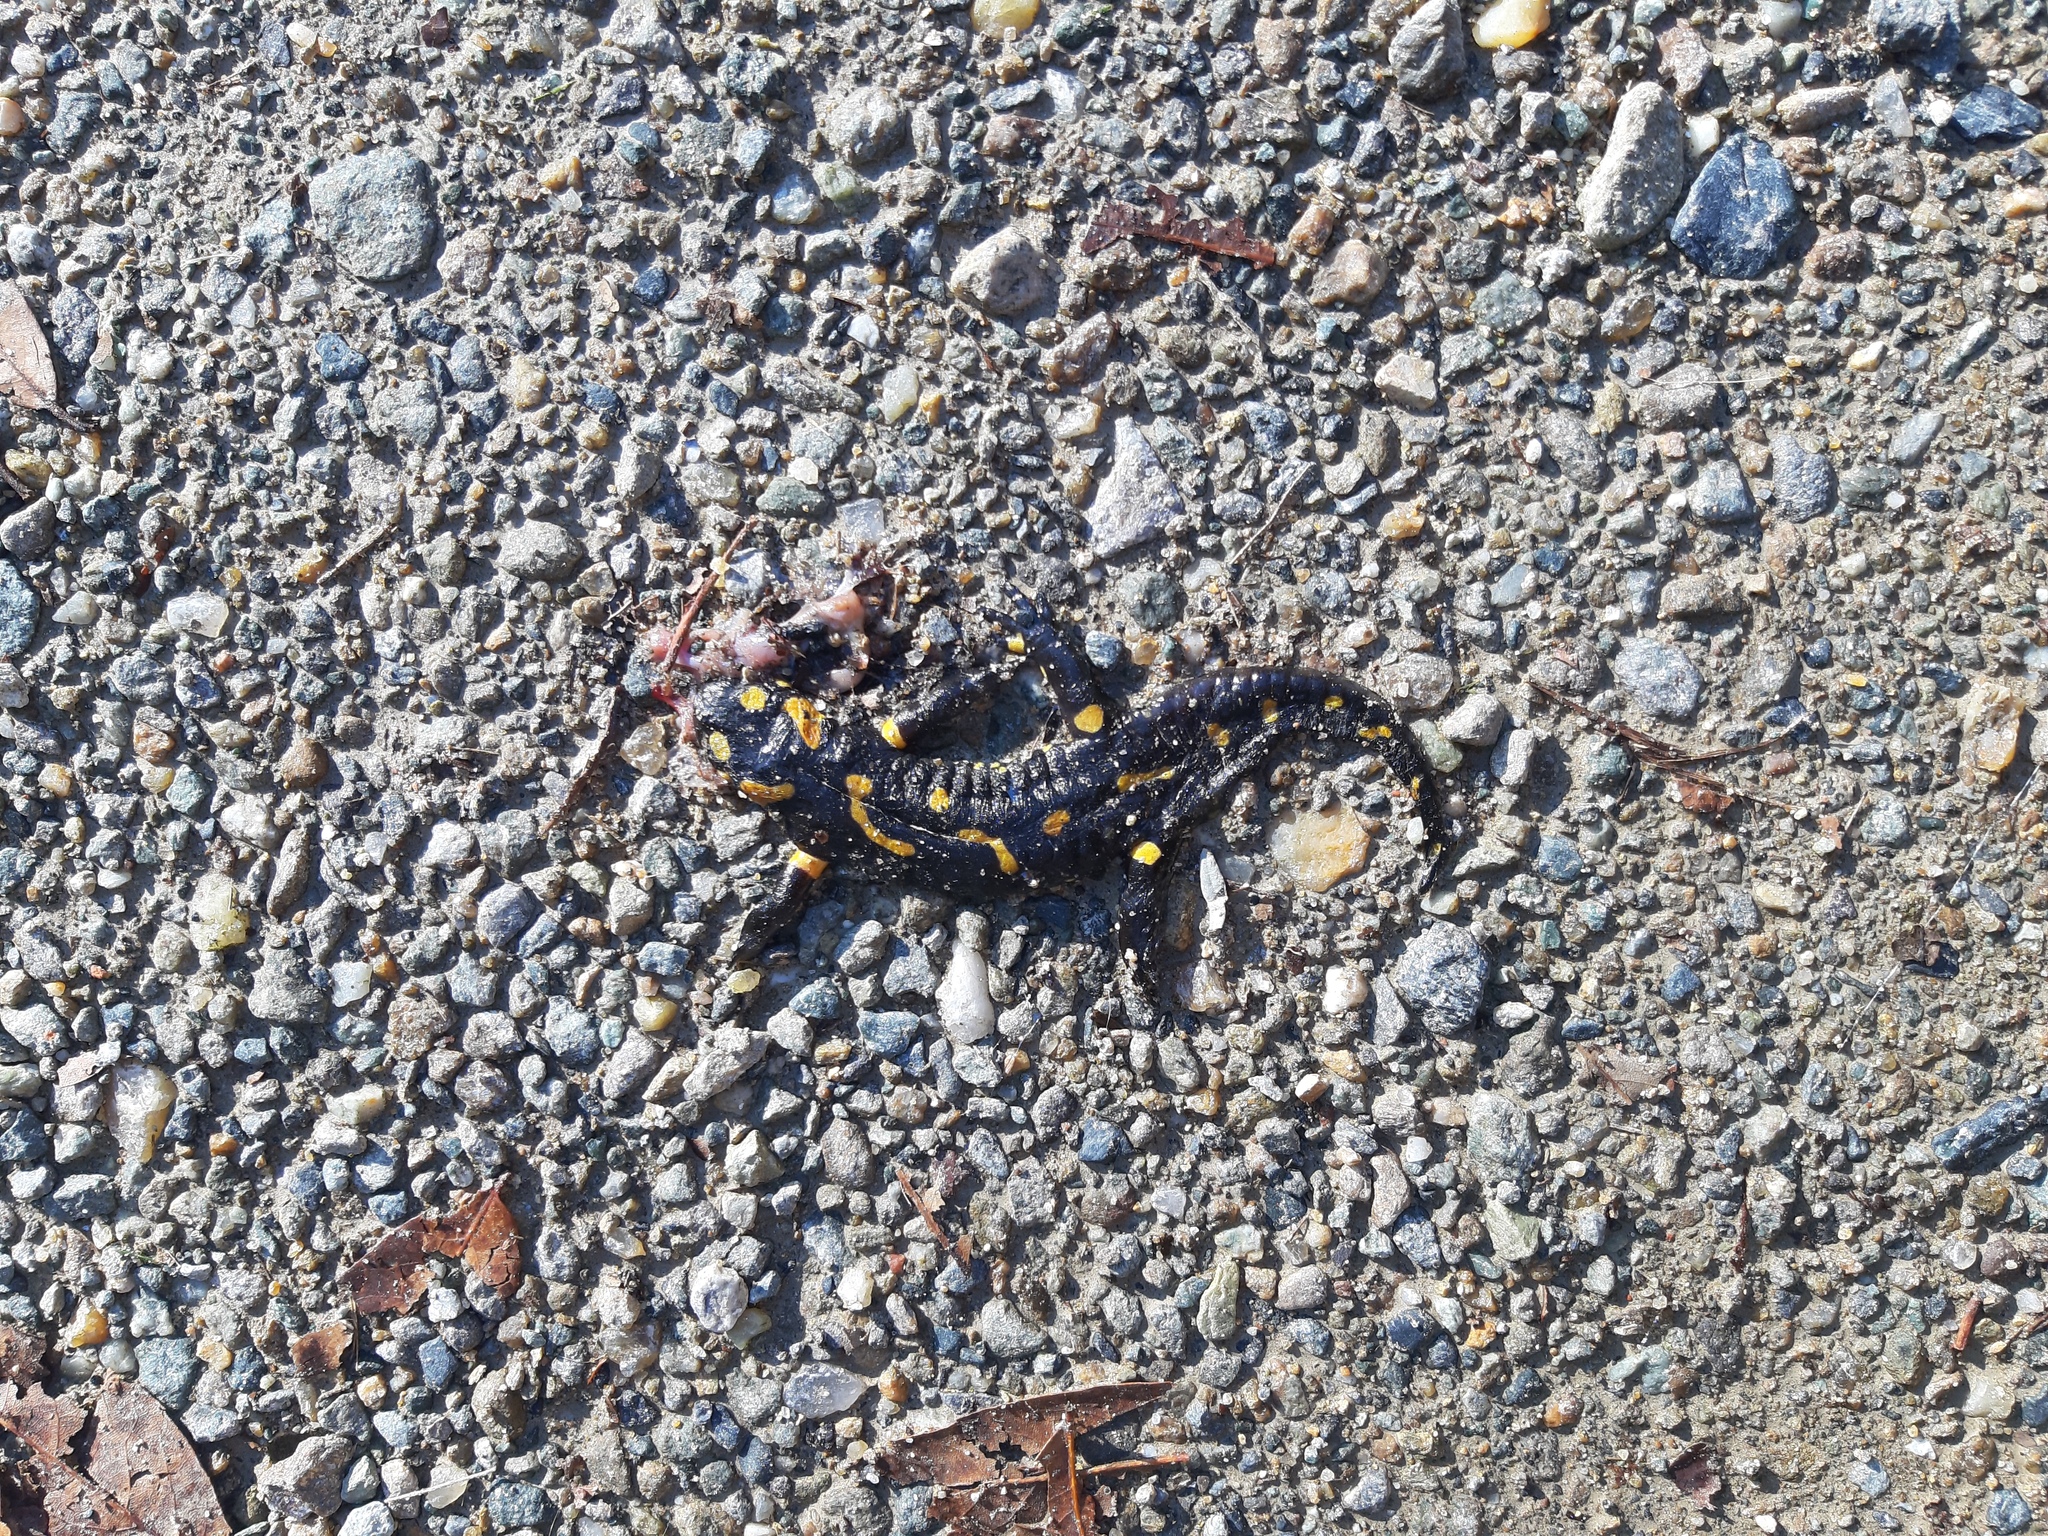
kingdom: Animalia
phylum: Chordata
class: Amphibia
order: Caudata
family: Salamandridae
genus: Salamandra
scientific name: Salamandra salamandra
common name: Fire salamander
